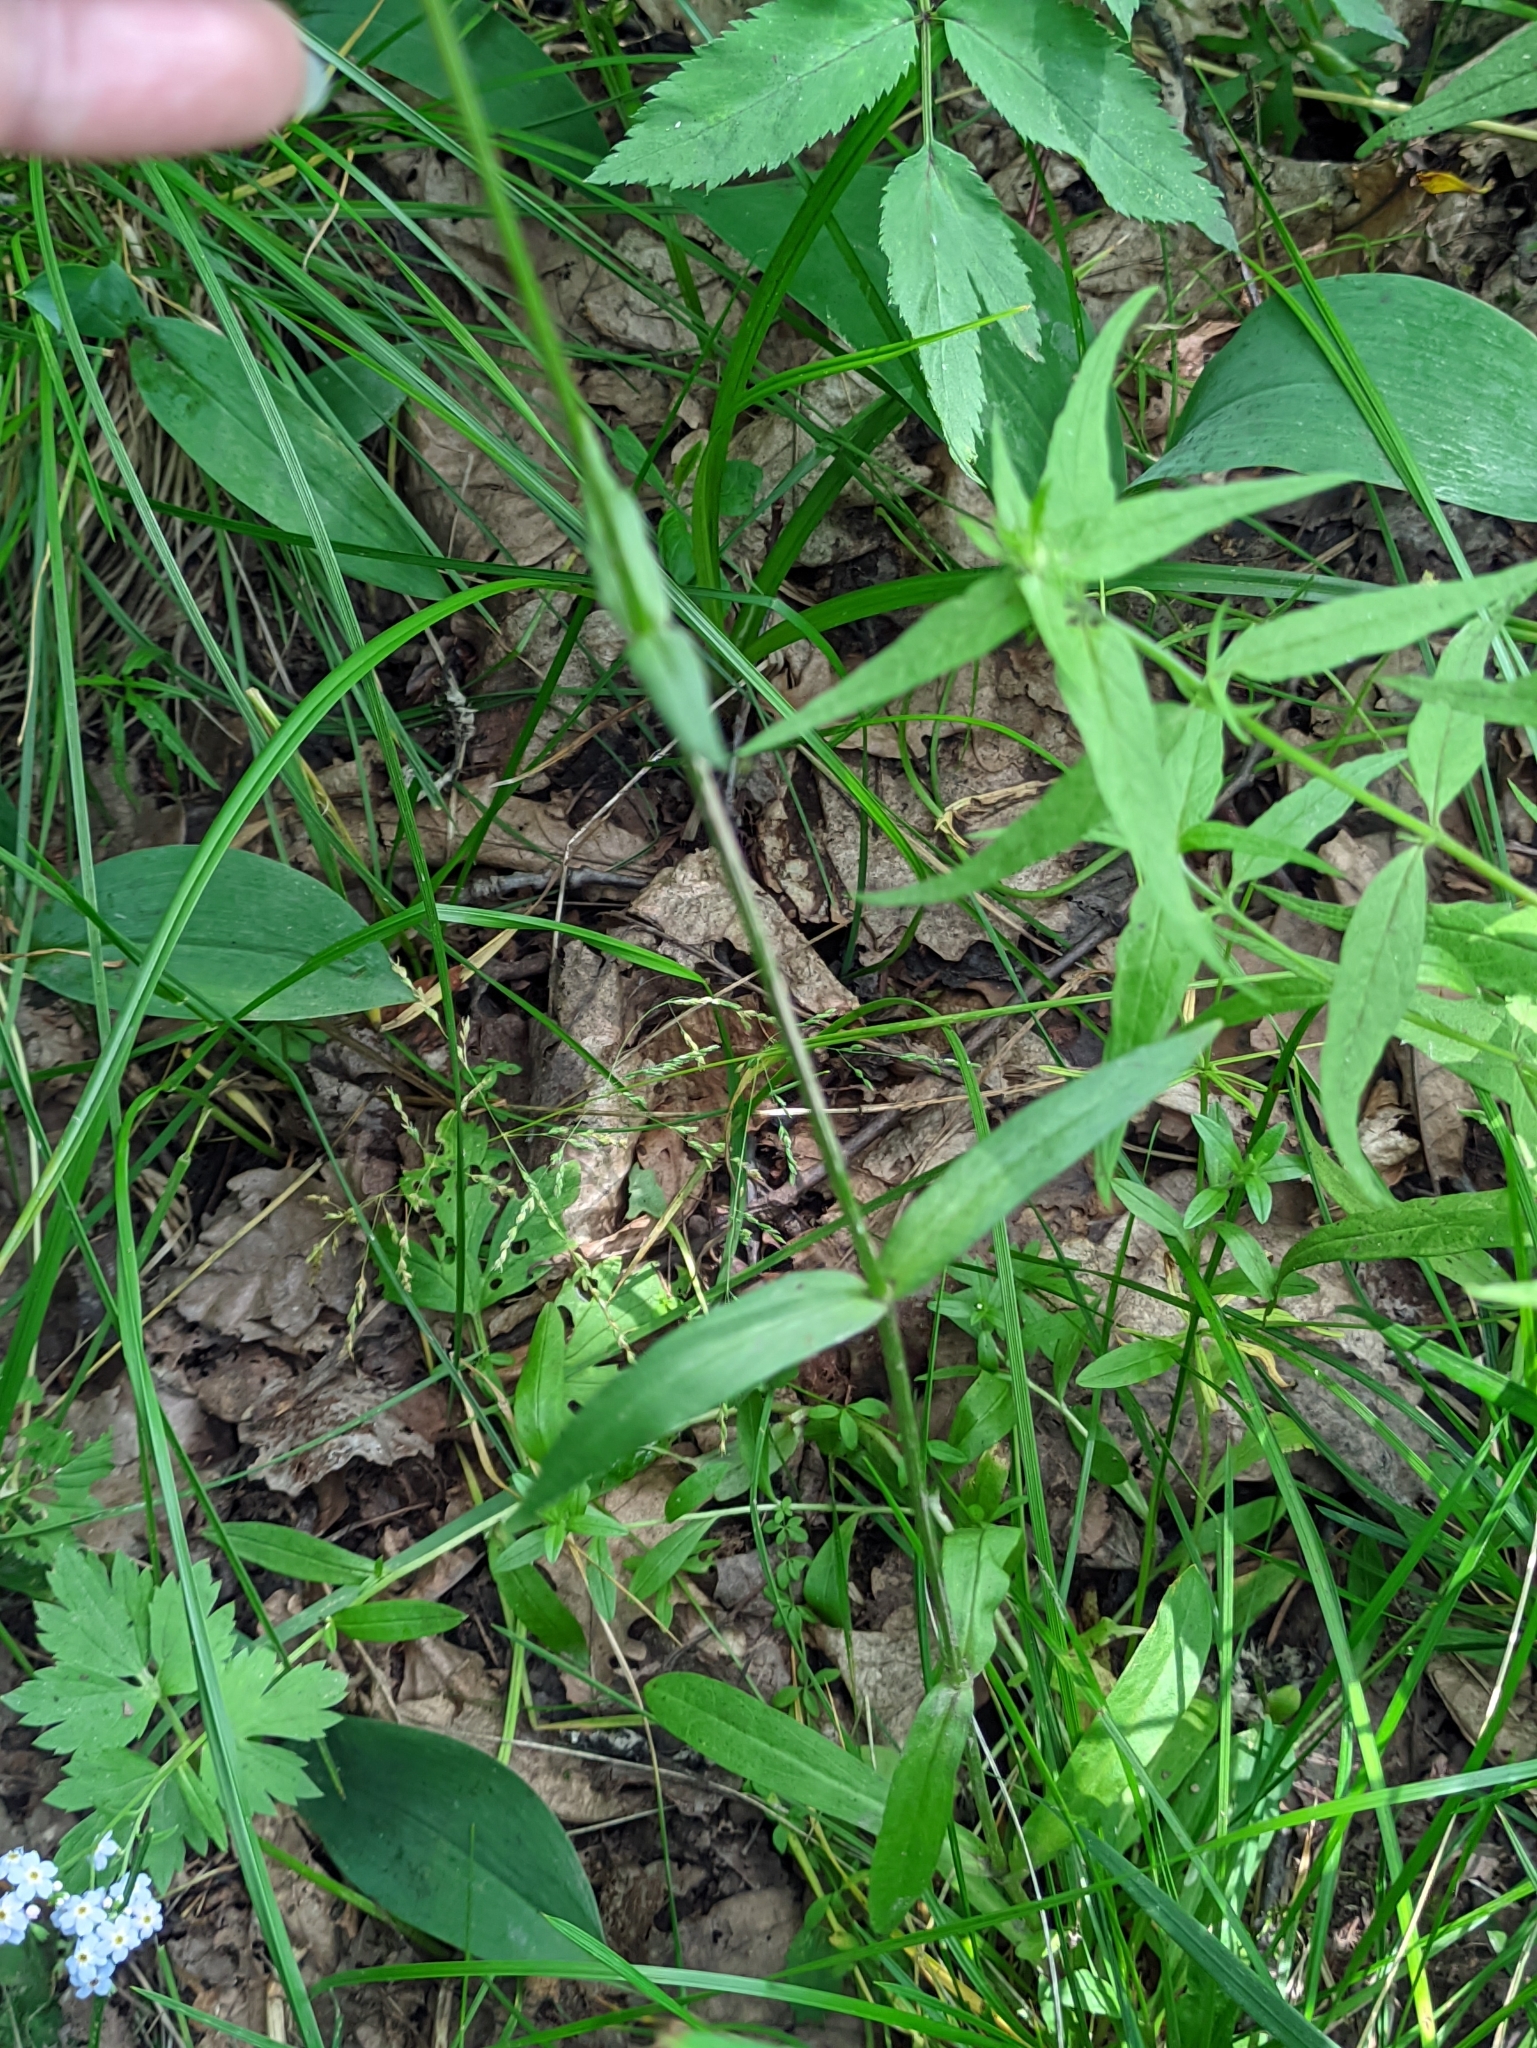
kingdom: Plantae
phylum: Tracheophyta
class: Magnoliopsida
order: Caryophyllales
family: Caryophyllaceae
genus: Silene
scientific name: Silene flos-cuculi
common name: Ragged-robin
